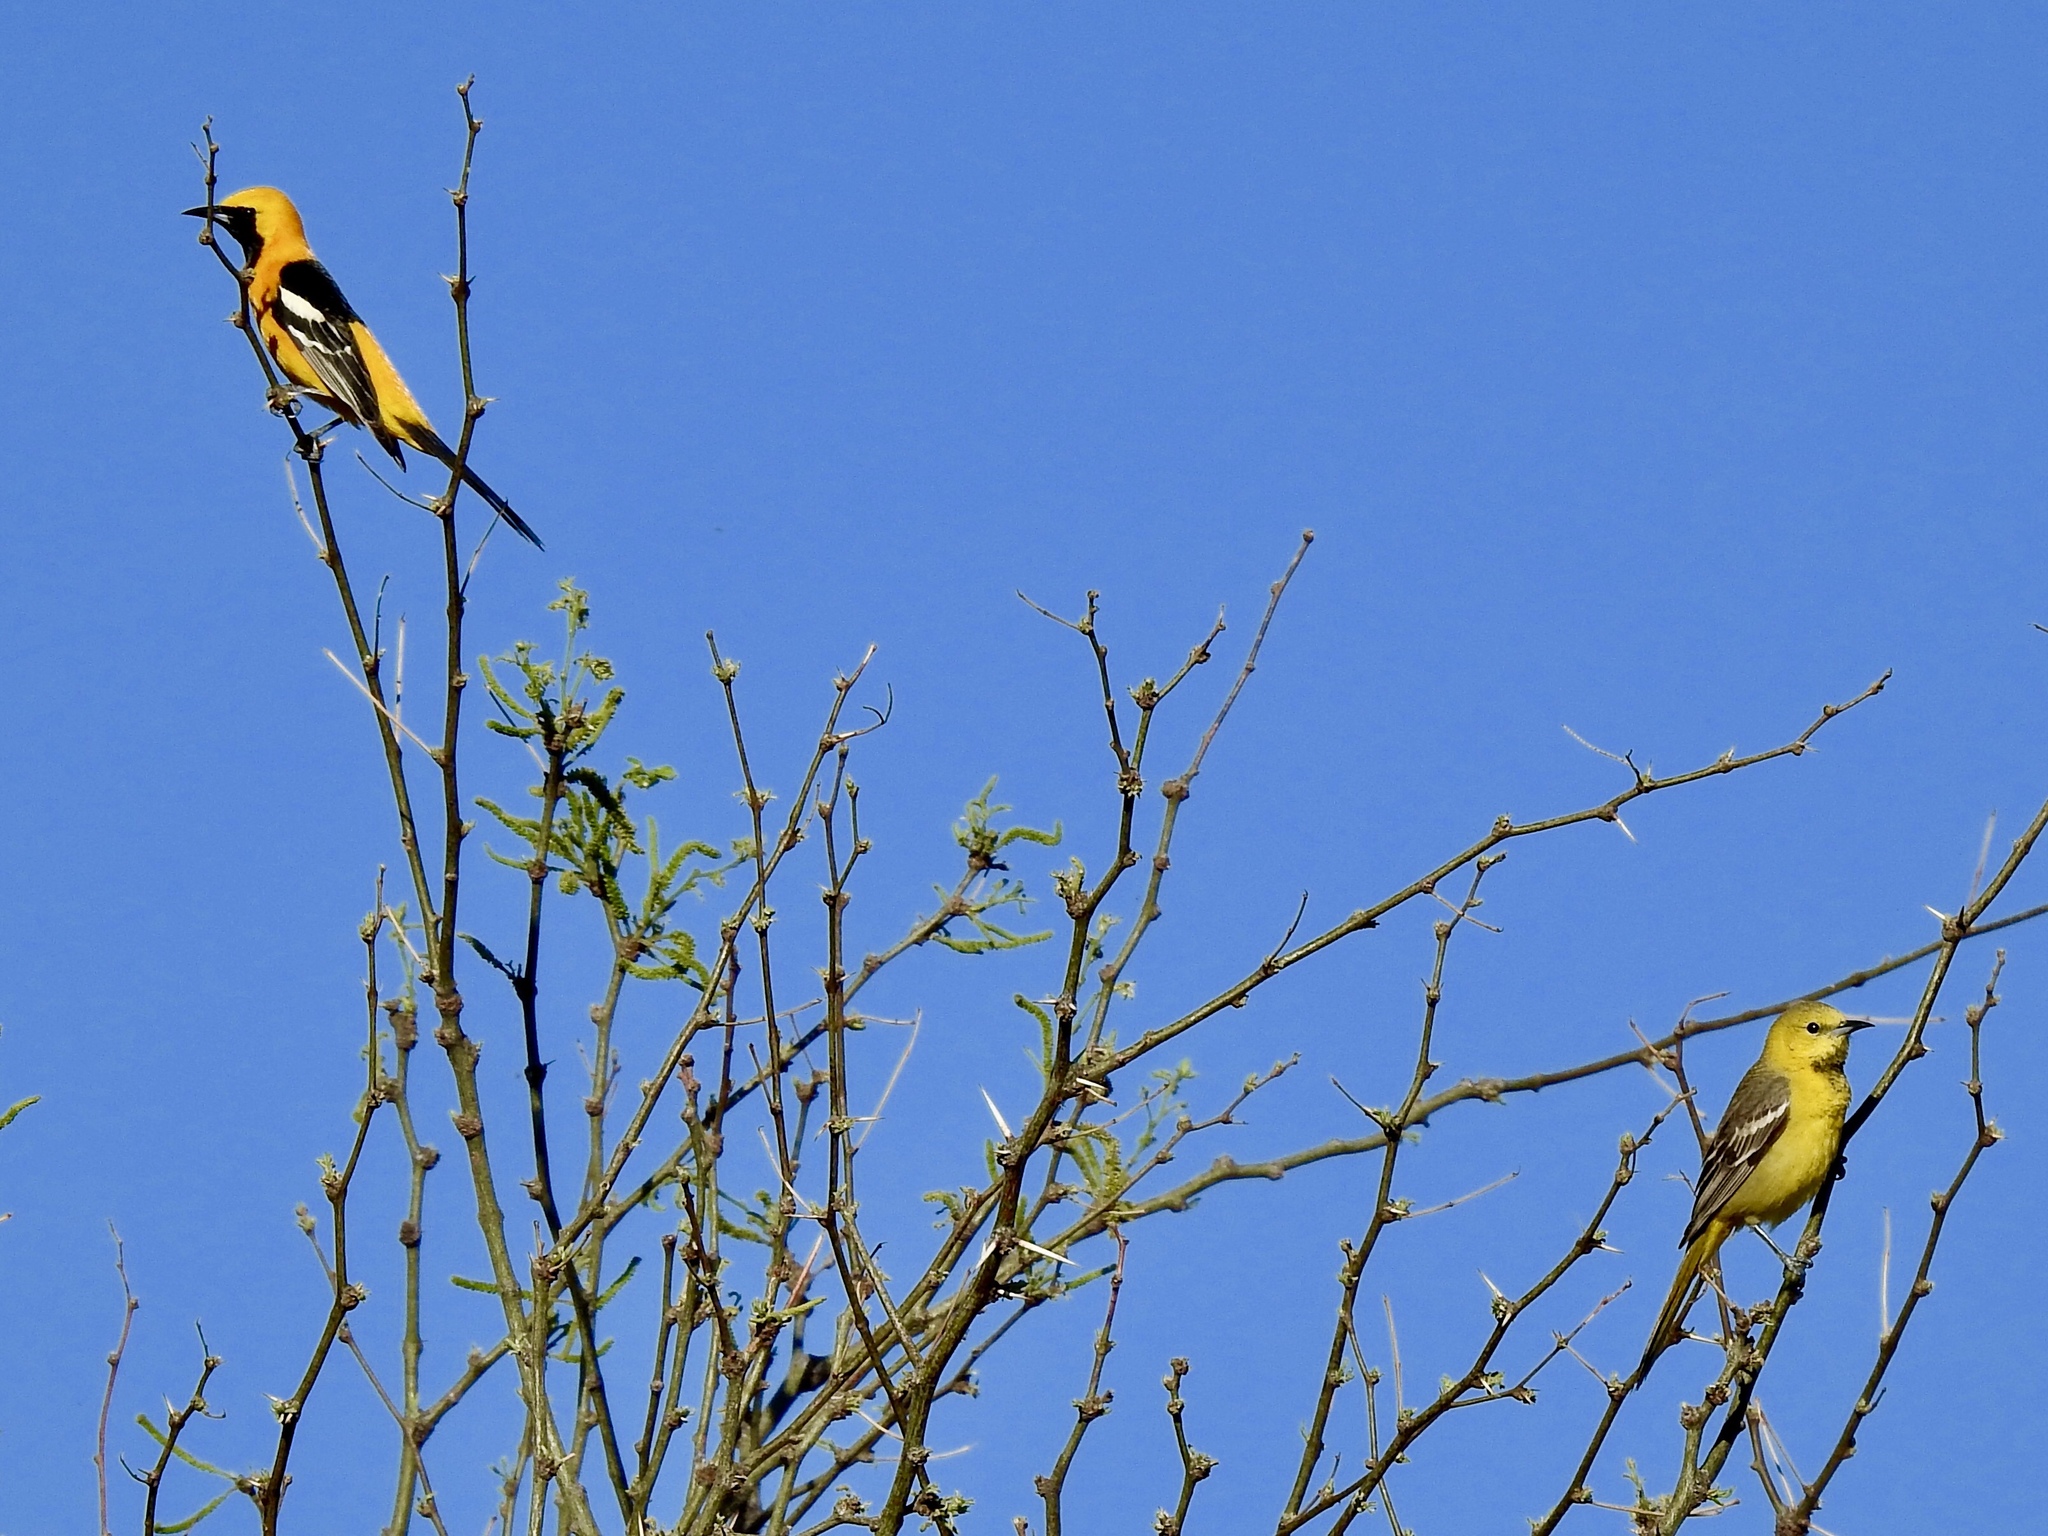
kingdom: Animalia
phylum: Chordata
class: Aves
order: Passeriformes
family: Icteridae
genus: Icterus
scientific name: Icterus cucullatus
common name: Hooded oriole
